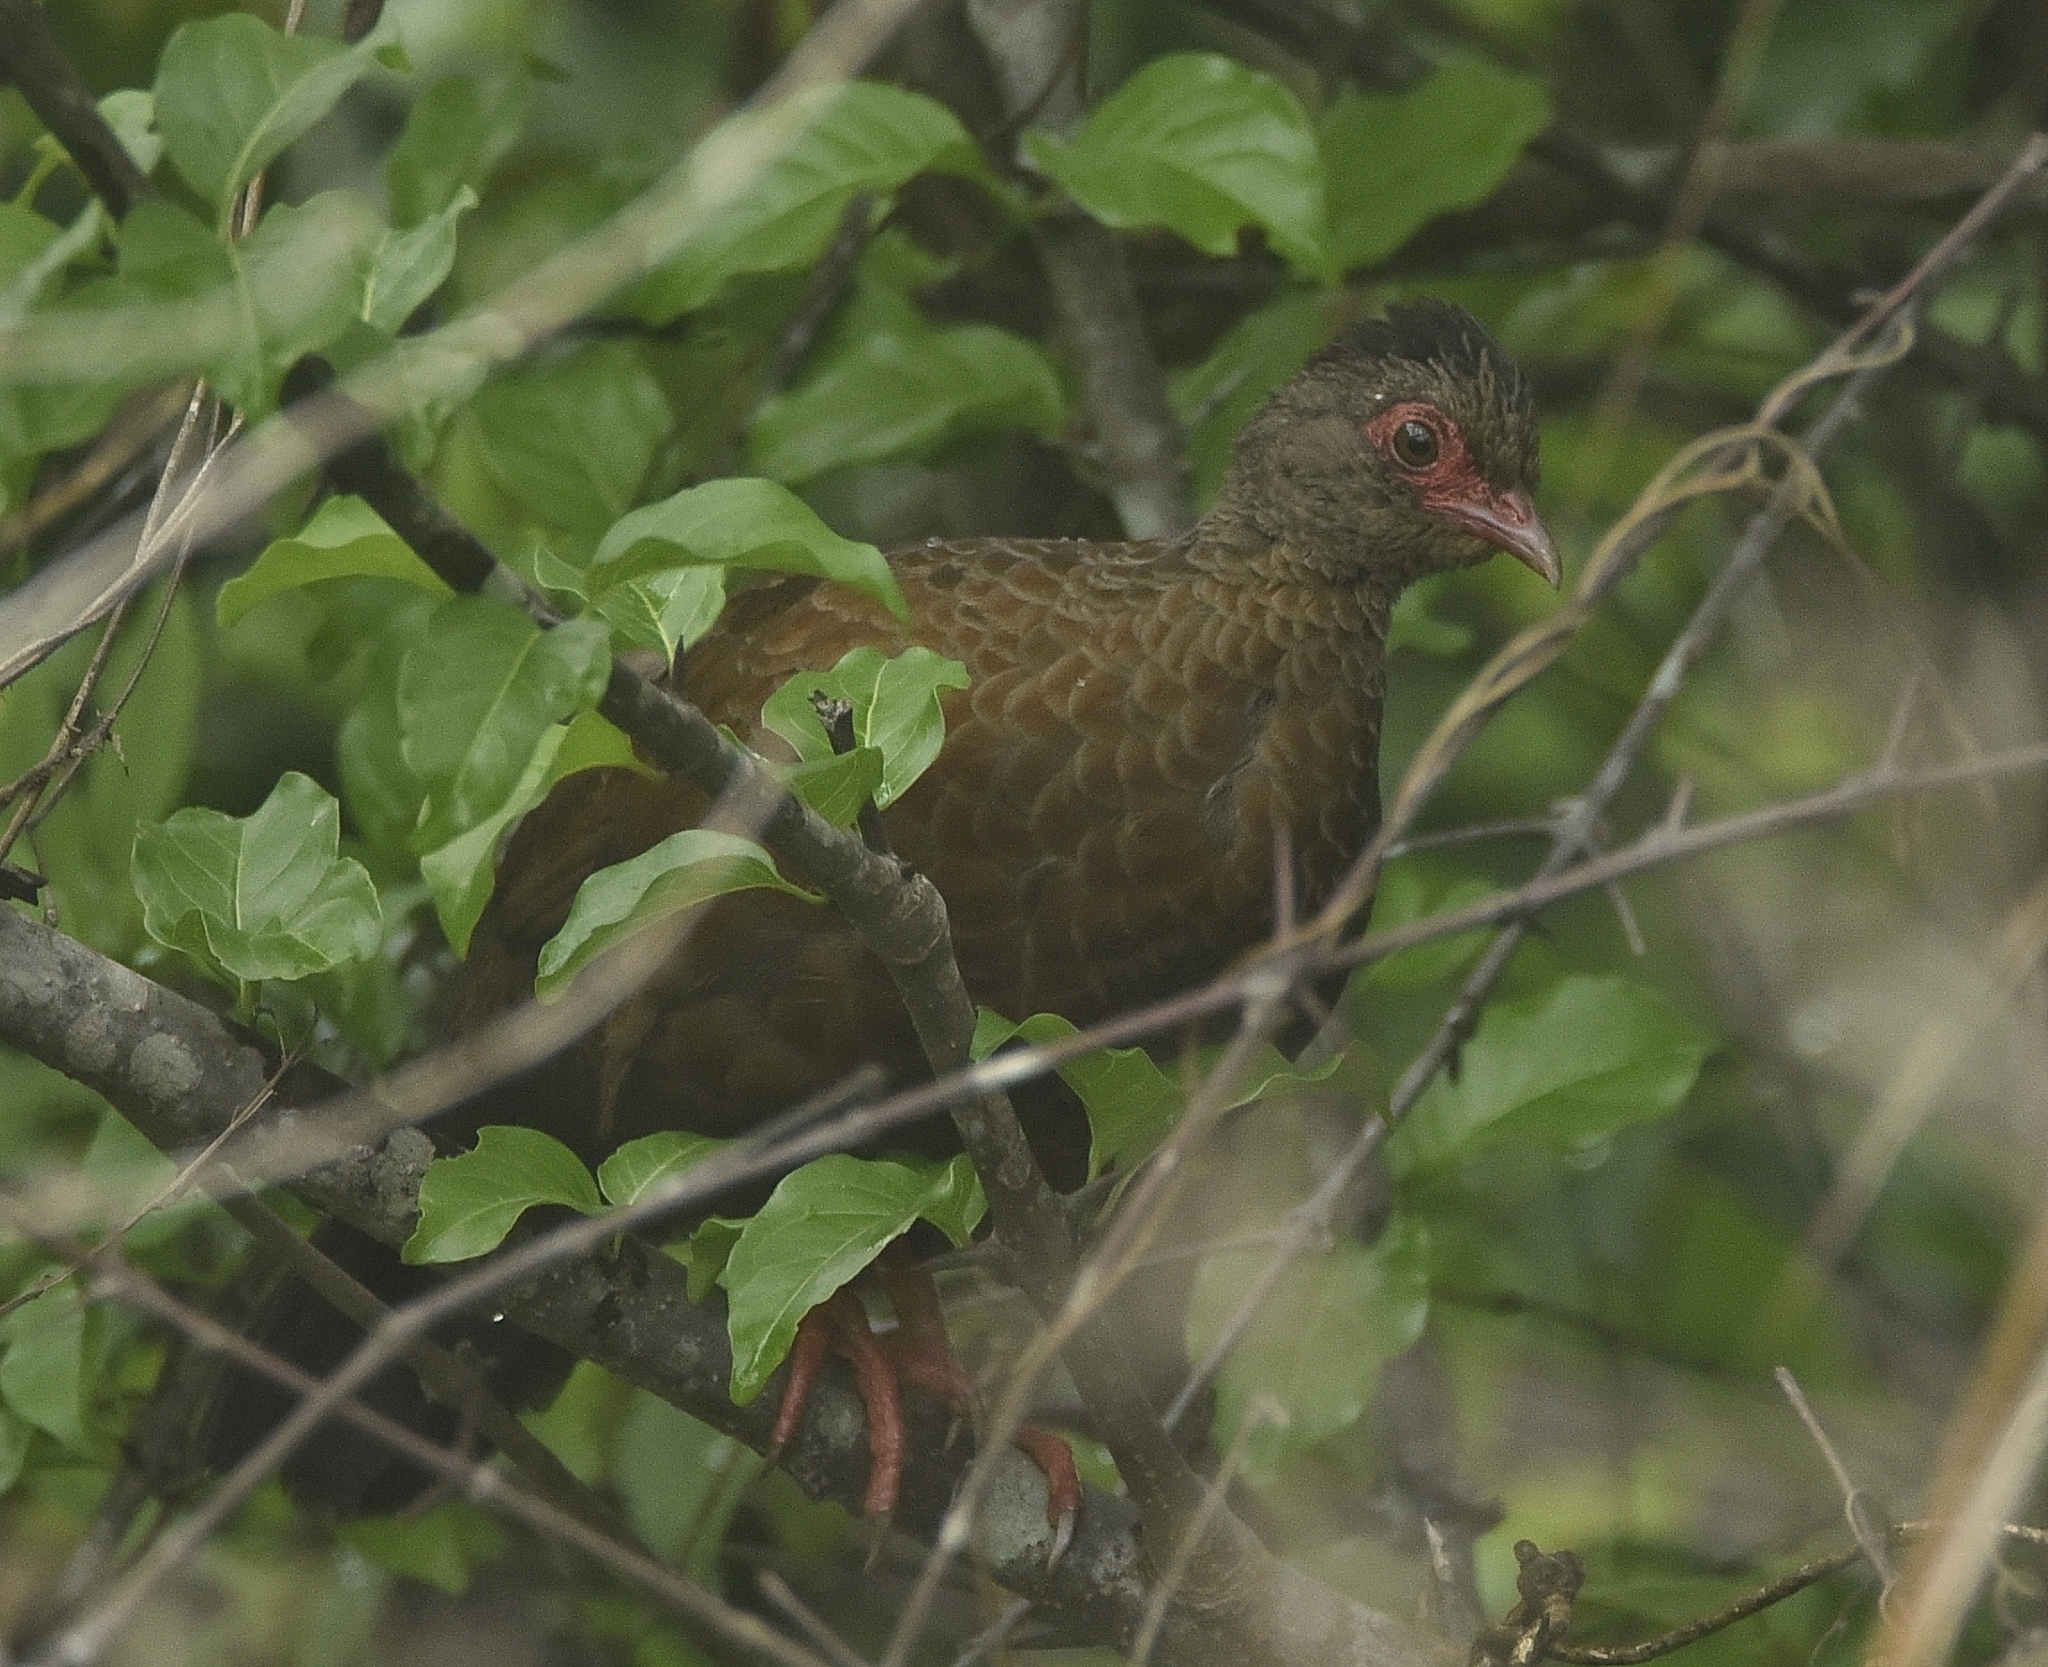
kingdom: Animalia
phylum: Chordata
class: Aves
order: Galliformes
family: Phasianidae
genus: Galloperdix
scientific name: Galloperdix spadicea
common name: Red spurfowl
